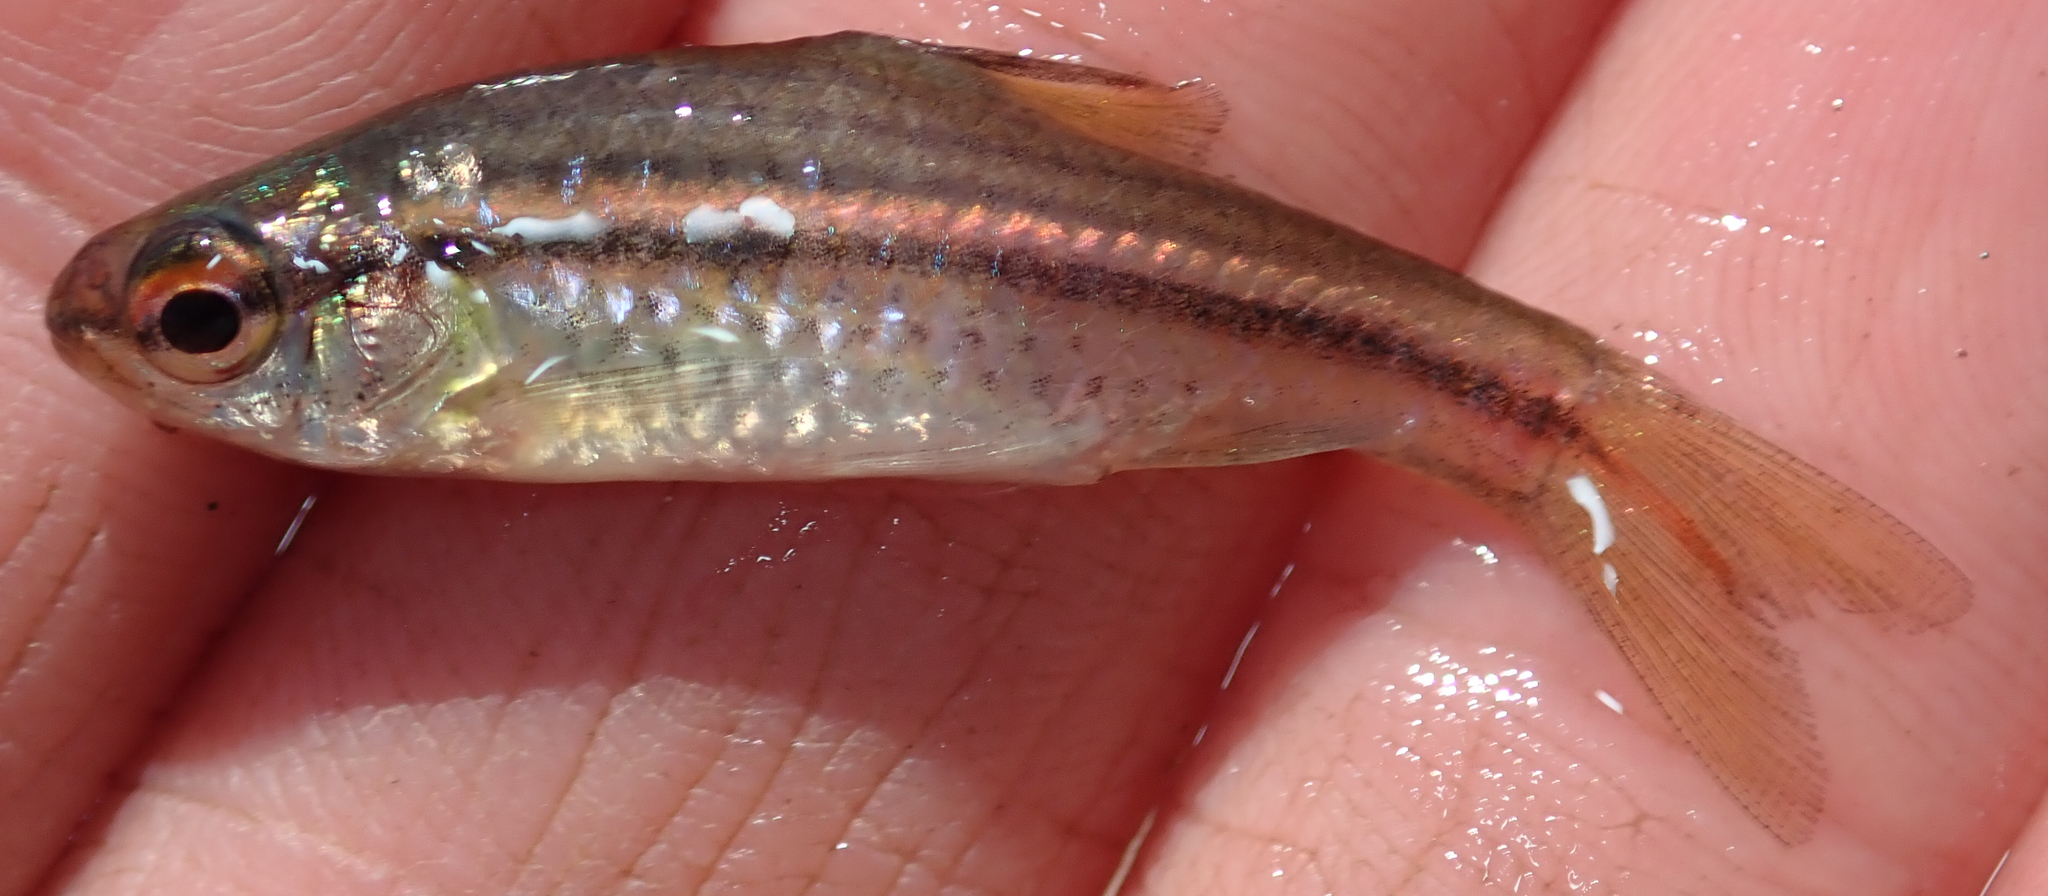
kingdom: Animalia
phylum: Chordata
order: Cypriniformes
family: Cyprinidae
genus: Enteromius
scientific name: Enteromius multilineatus
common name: Copperstripe barb
